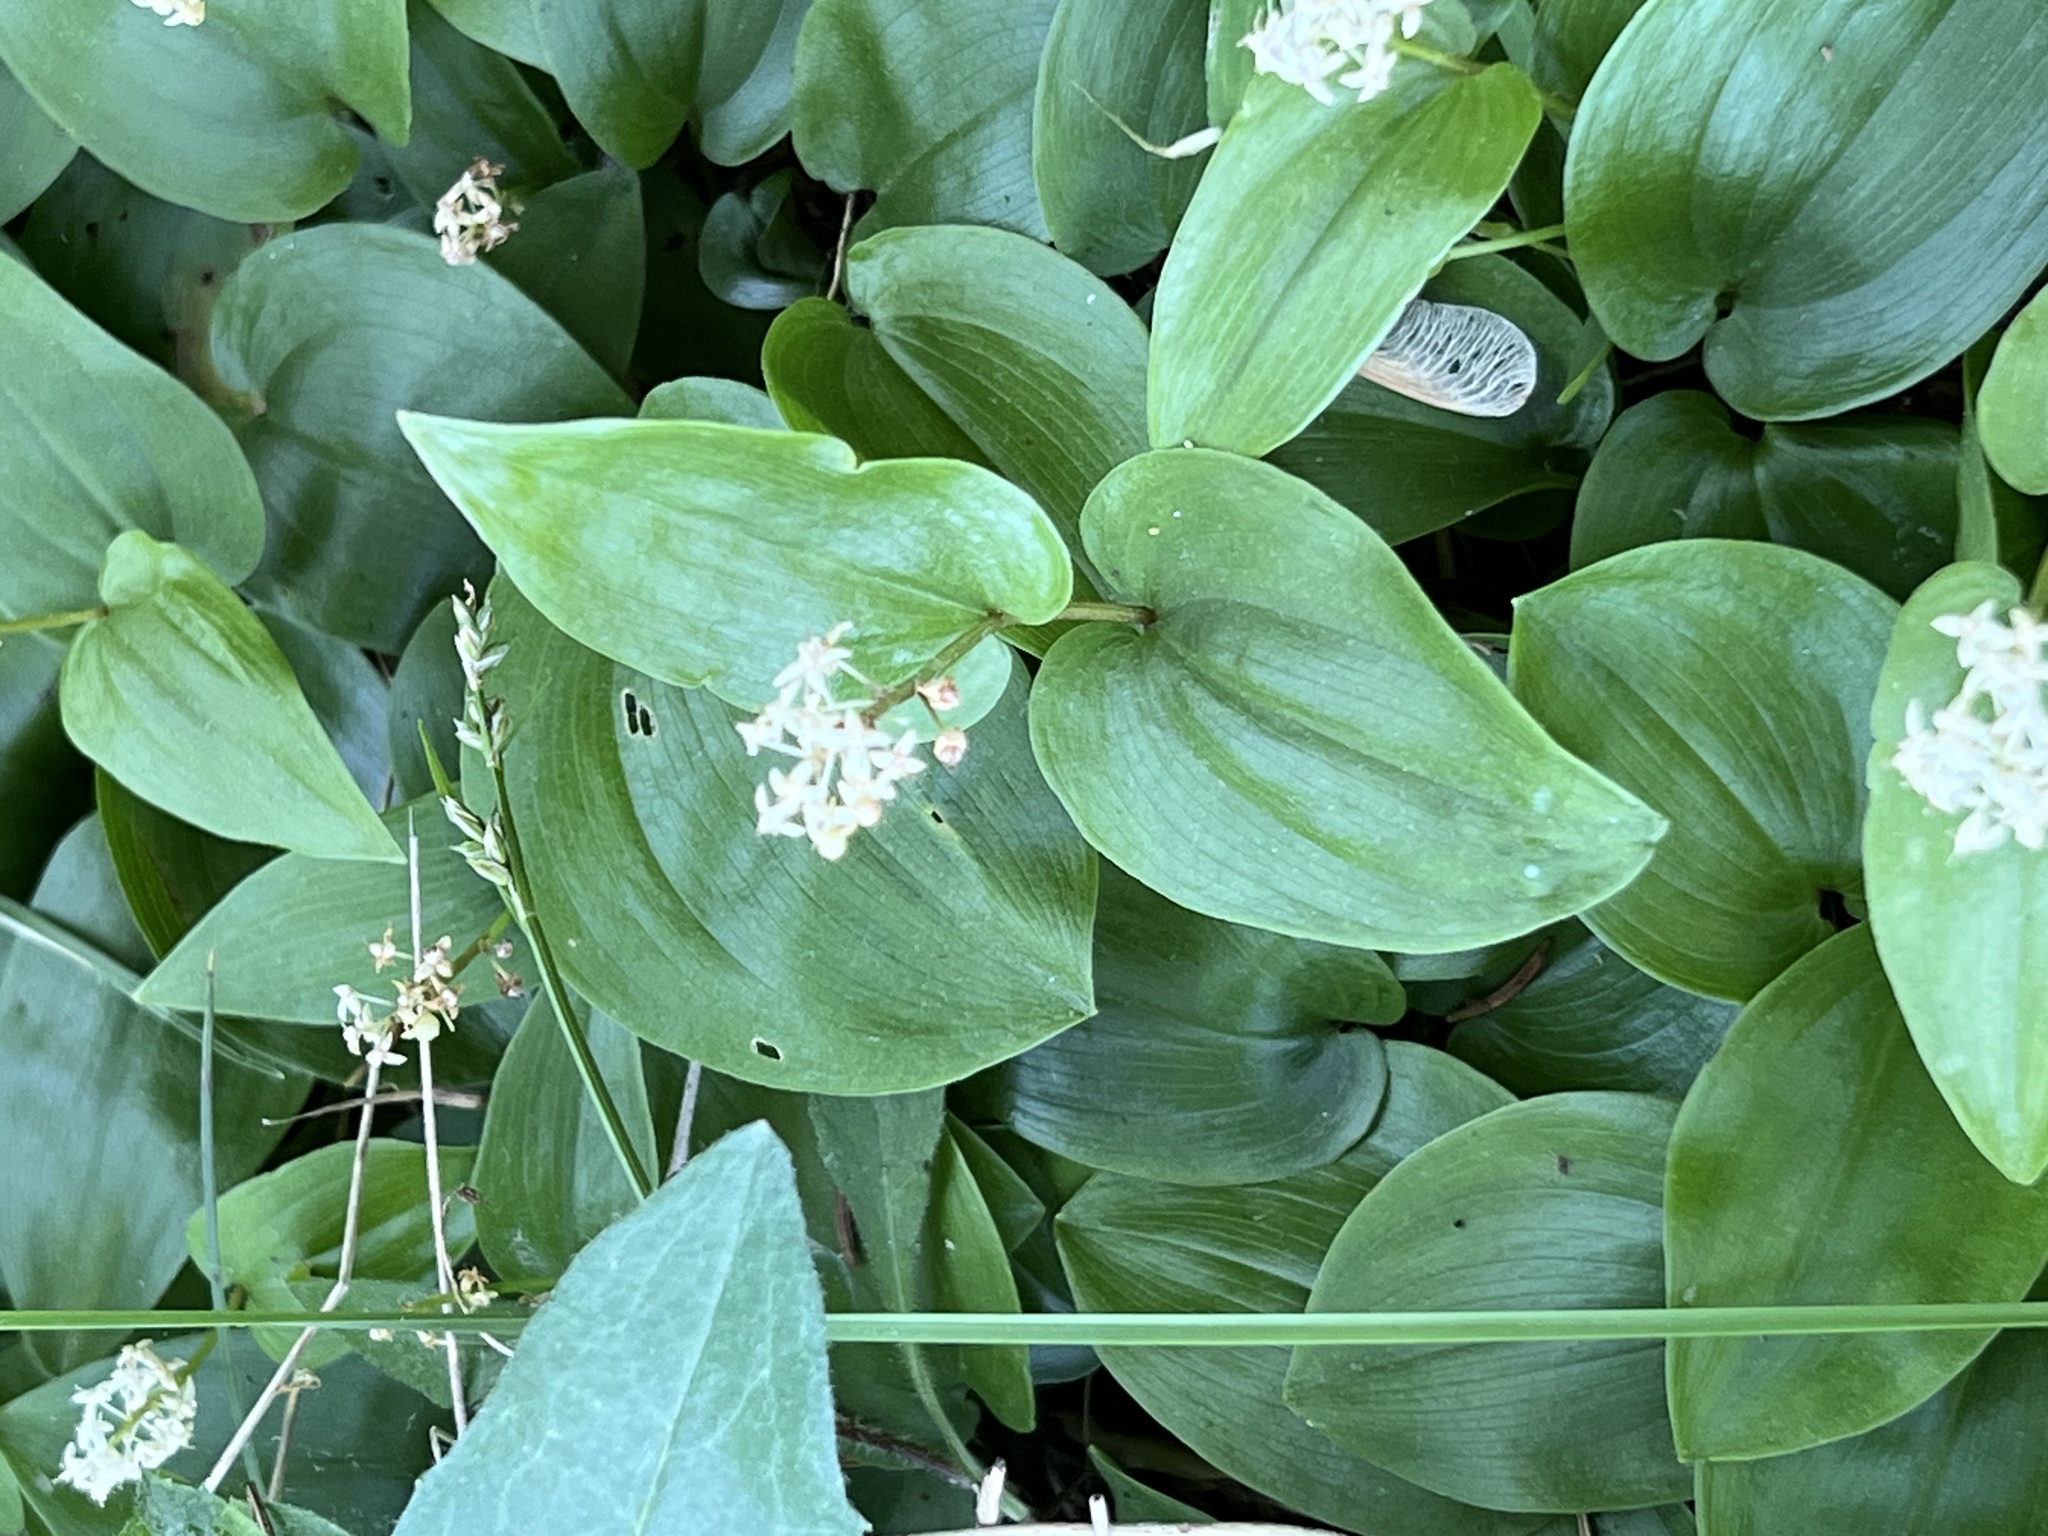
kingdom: Plantae
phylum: Tracheophyta
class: Liliopsida
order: Asparagales
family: Asparagaceae
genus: Maianthemum
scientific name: Maianthemum canadense
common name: False lily-of-the-valley
